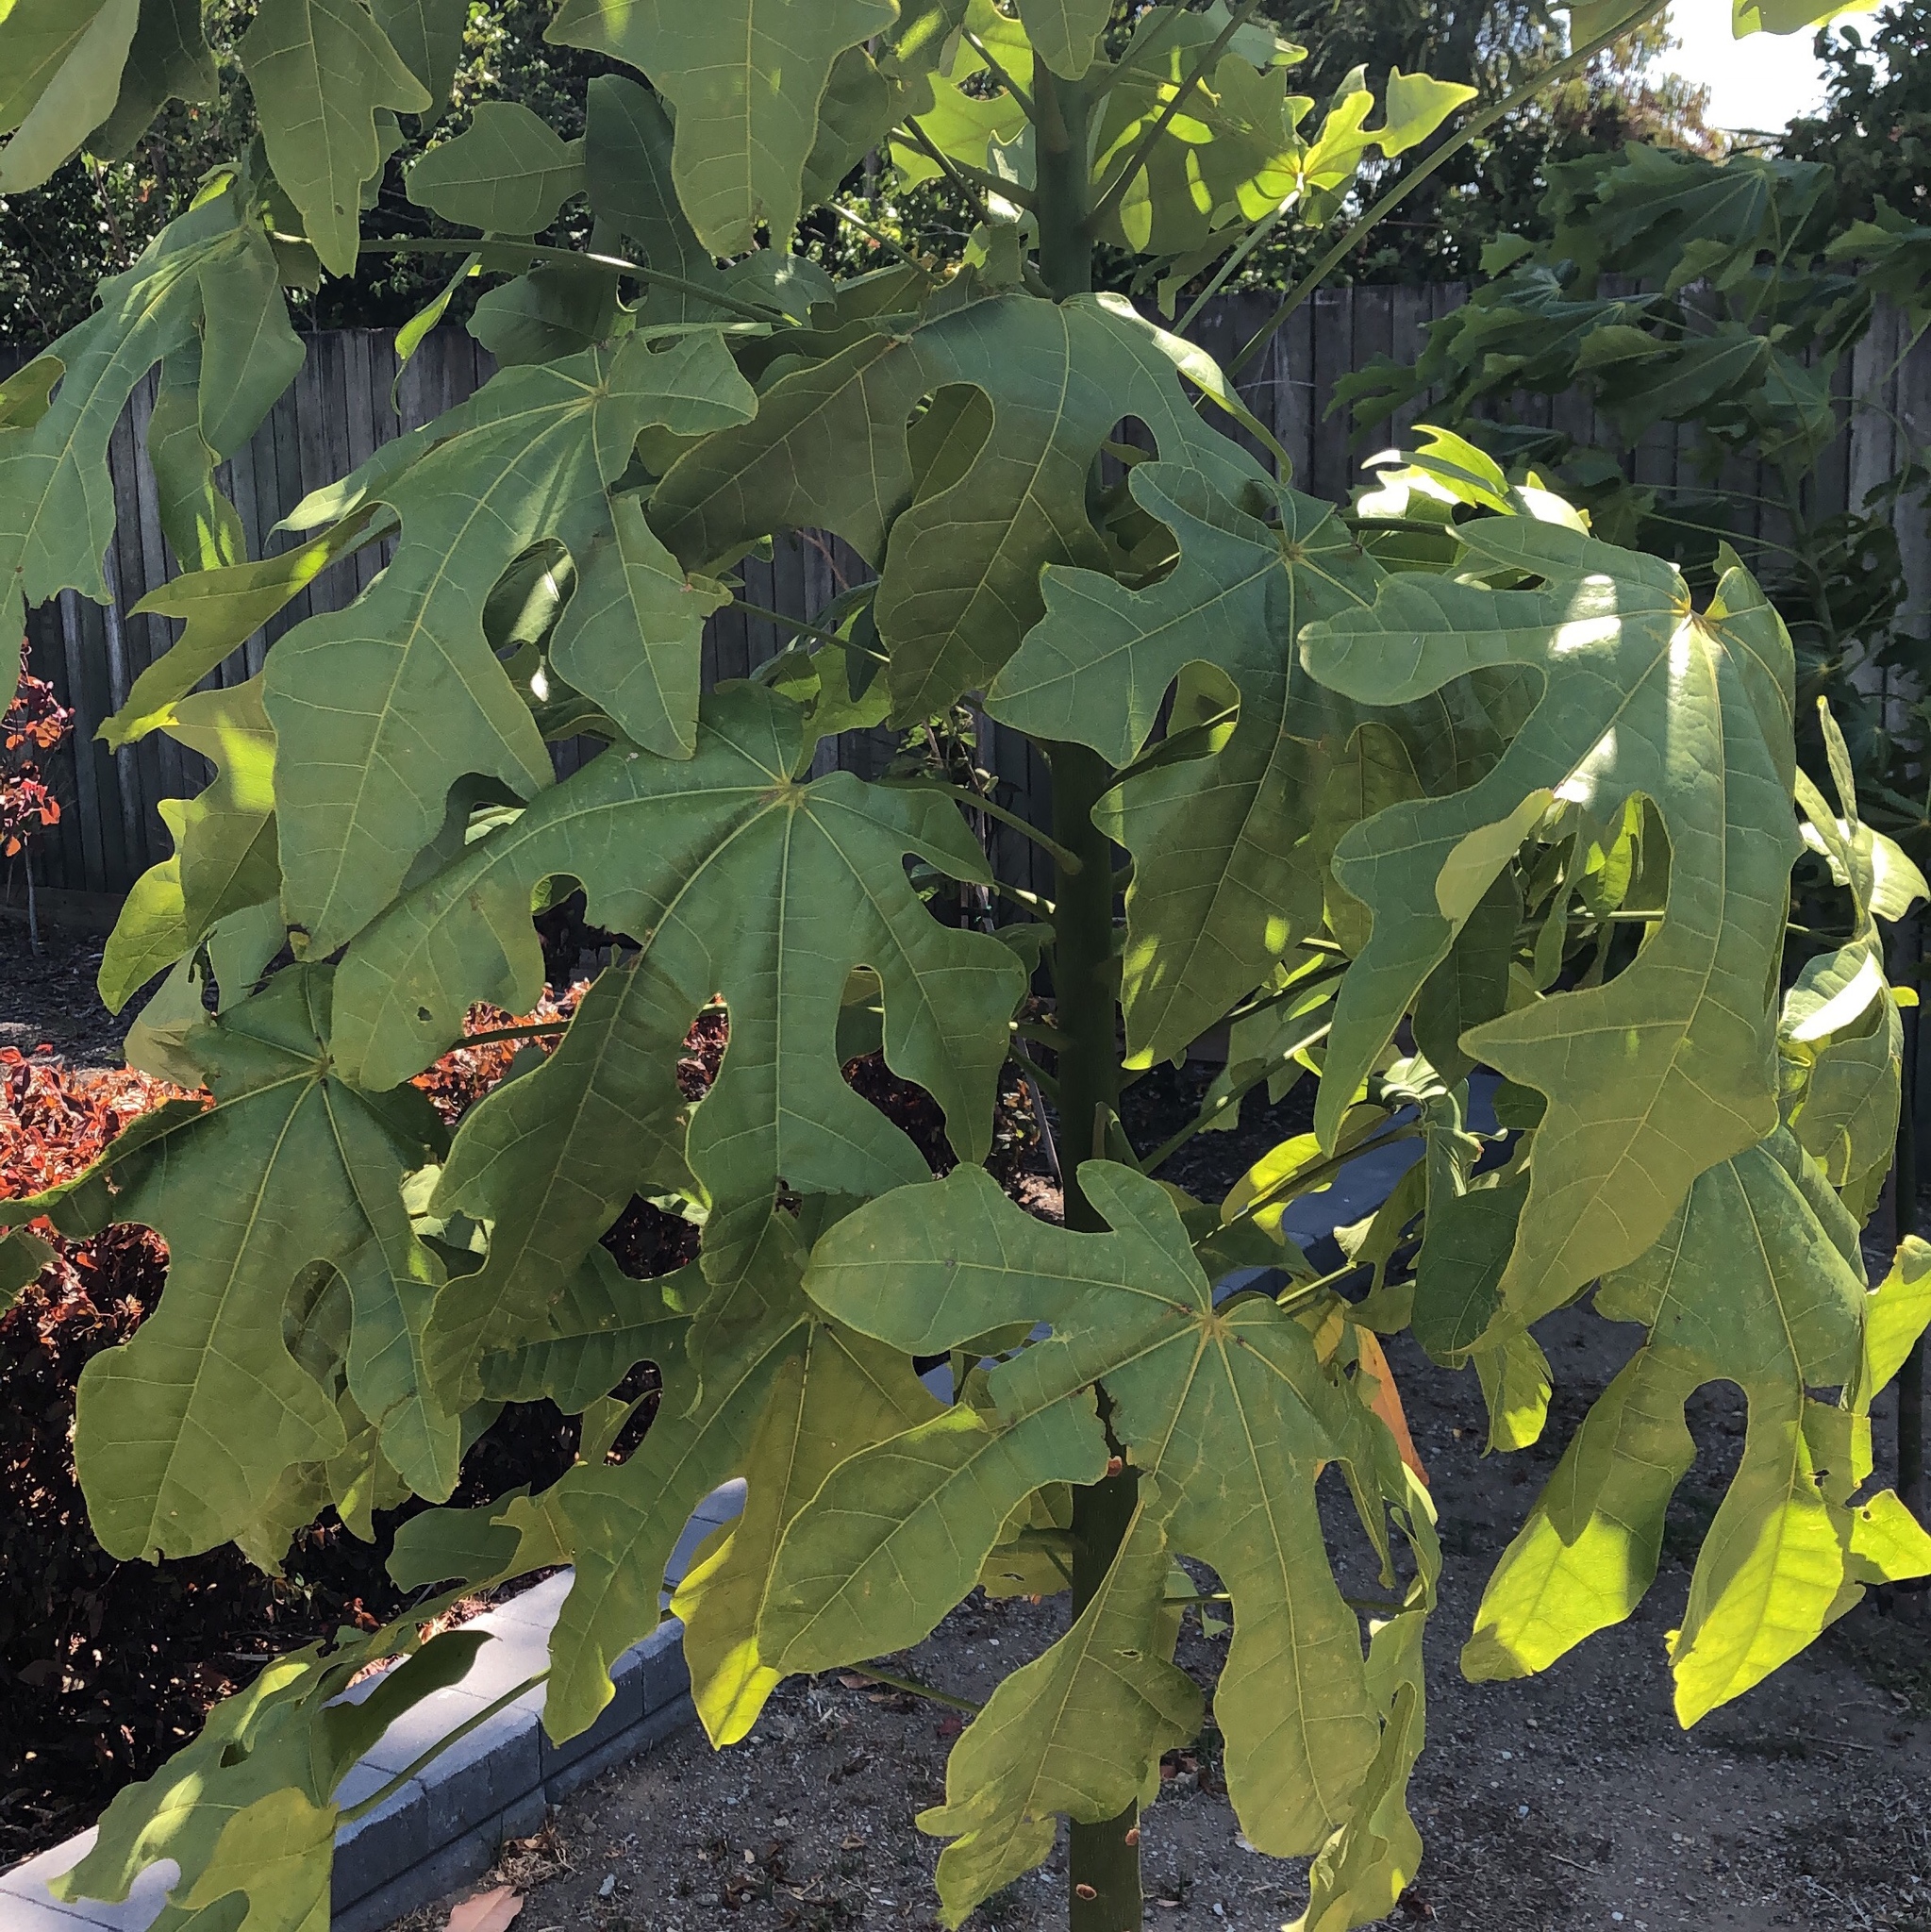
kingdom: Plantae
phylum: Tracheophyta
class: Magnoliopsida
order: Malvales
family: Malvaceae
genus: Brachychiton
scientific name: Brachychiton acerifolius
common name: Illawarra flame tree
